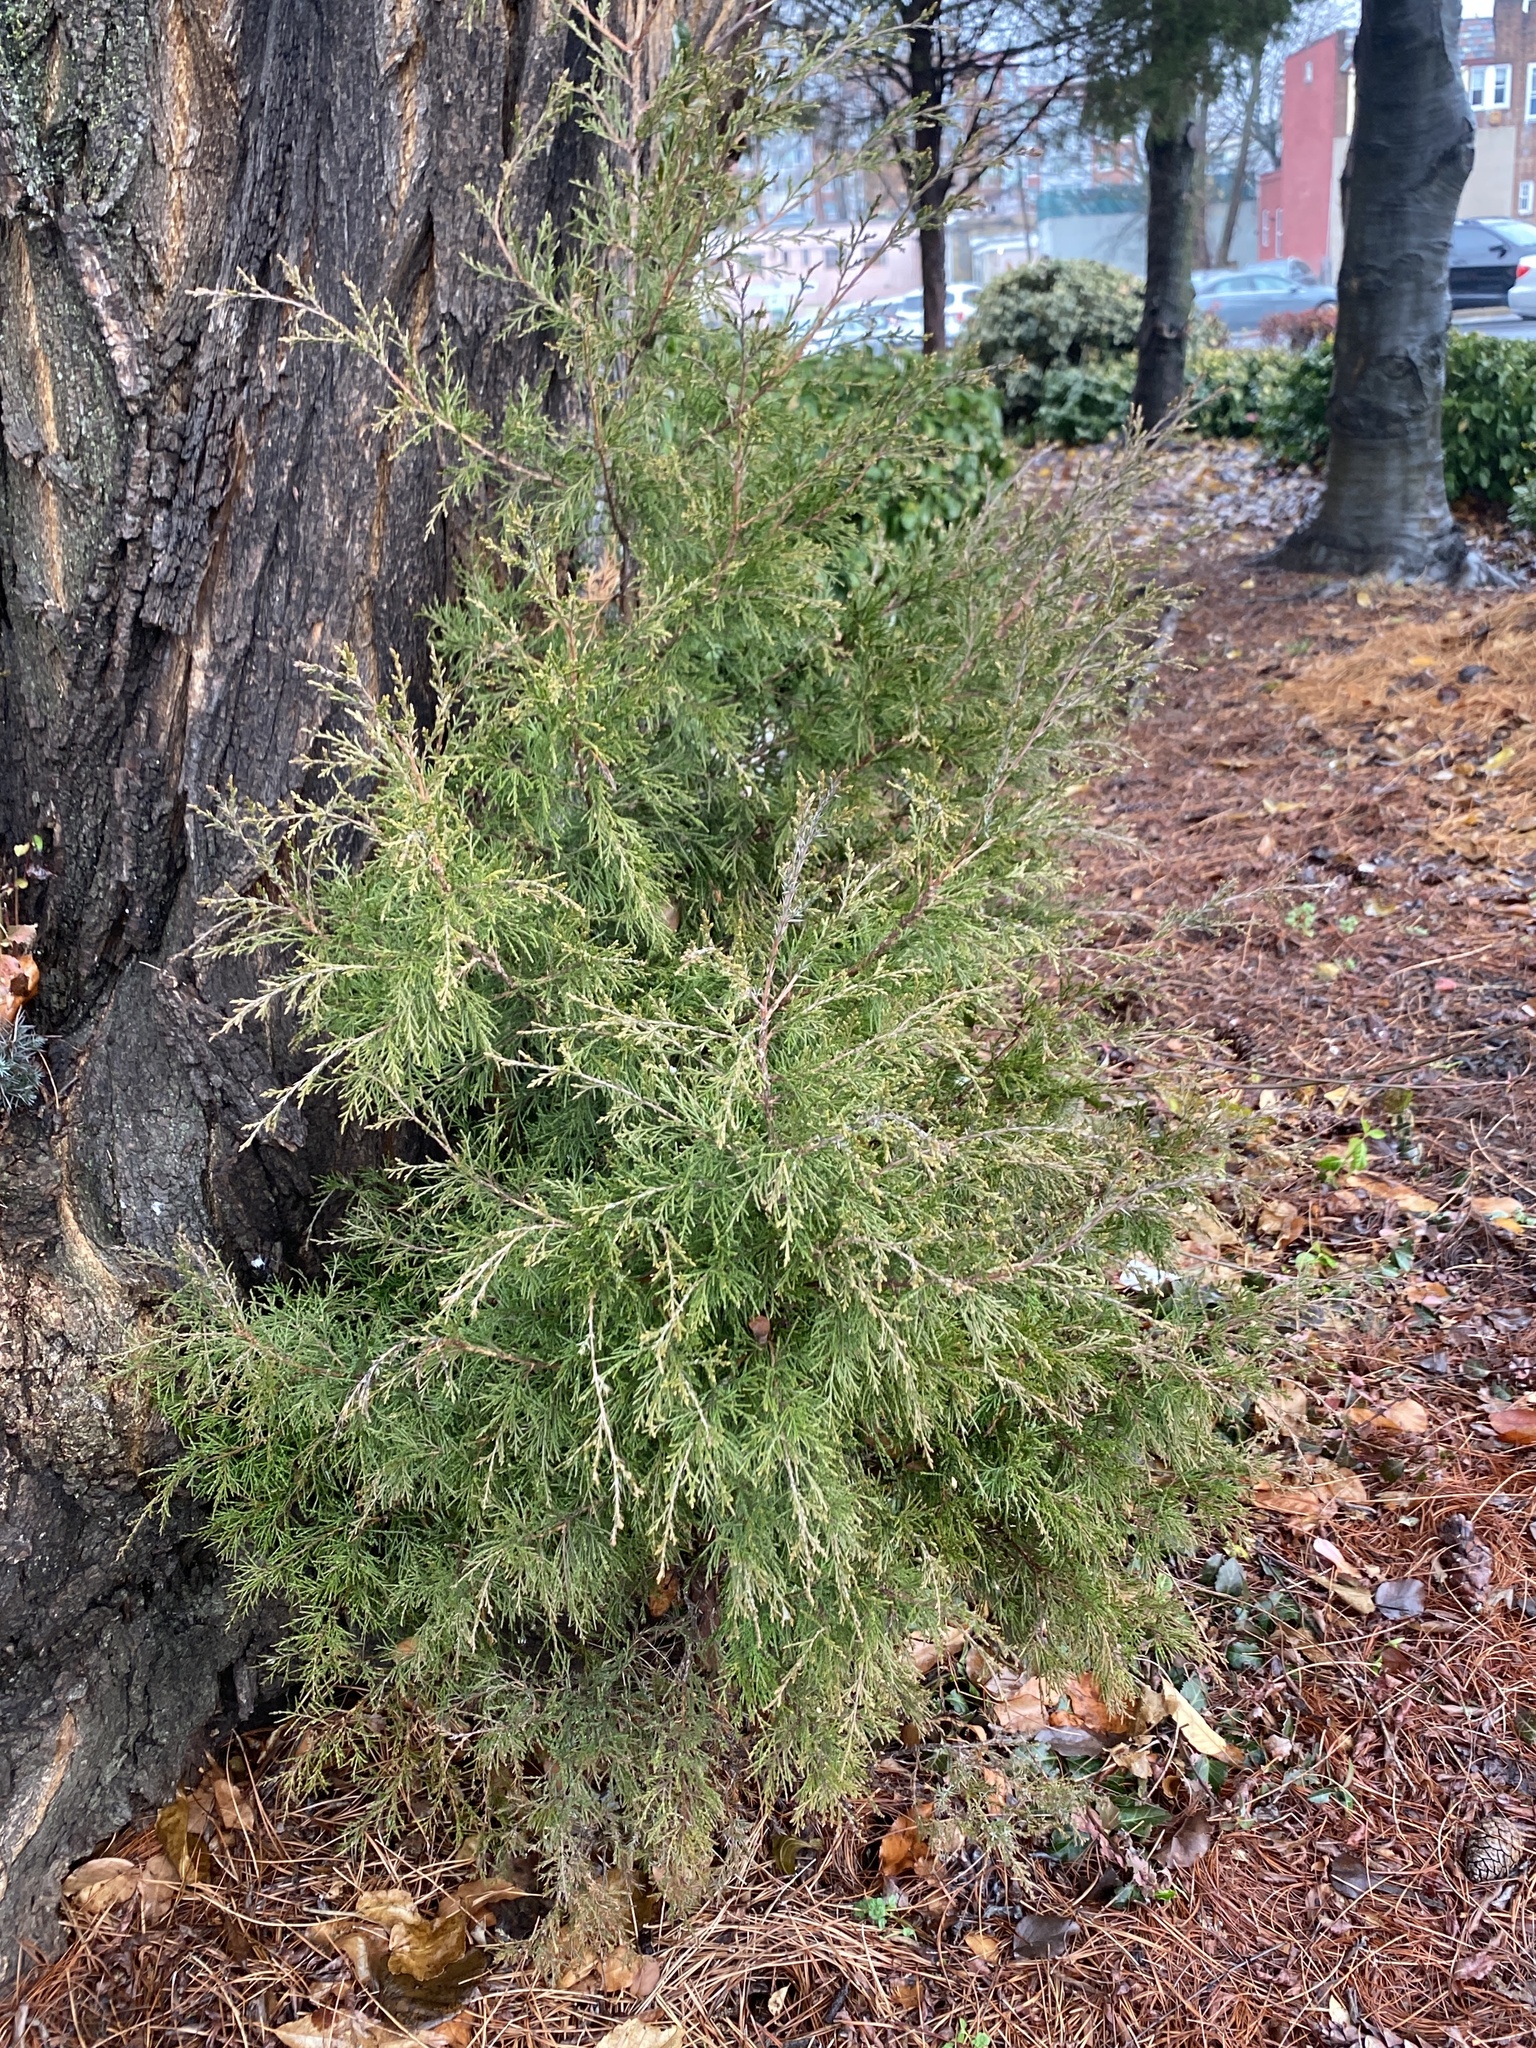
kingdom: Plantae
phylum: Tracheophyta
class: Pinopsida
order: Pinales
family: Cupressaceae
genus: Juniperus
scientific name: Juniperus virginiana
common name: Red juniper
